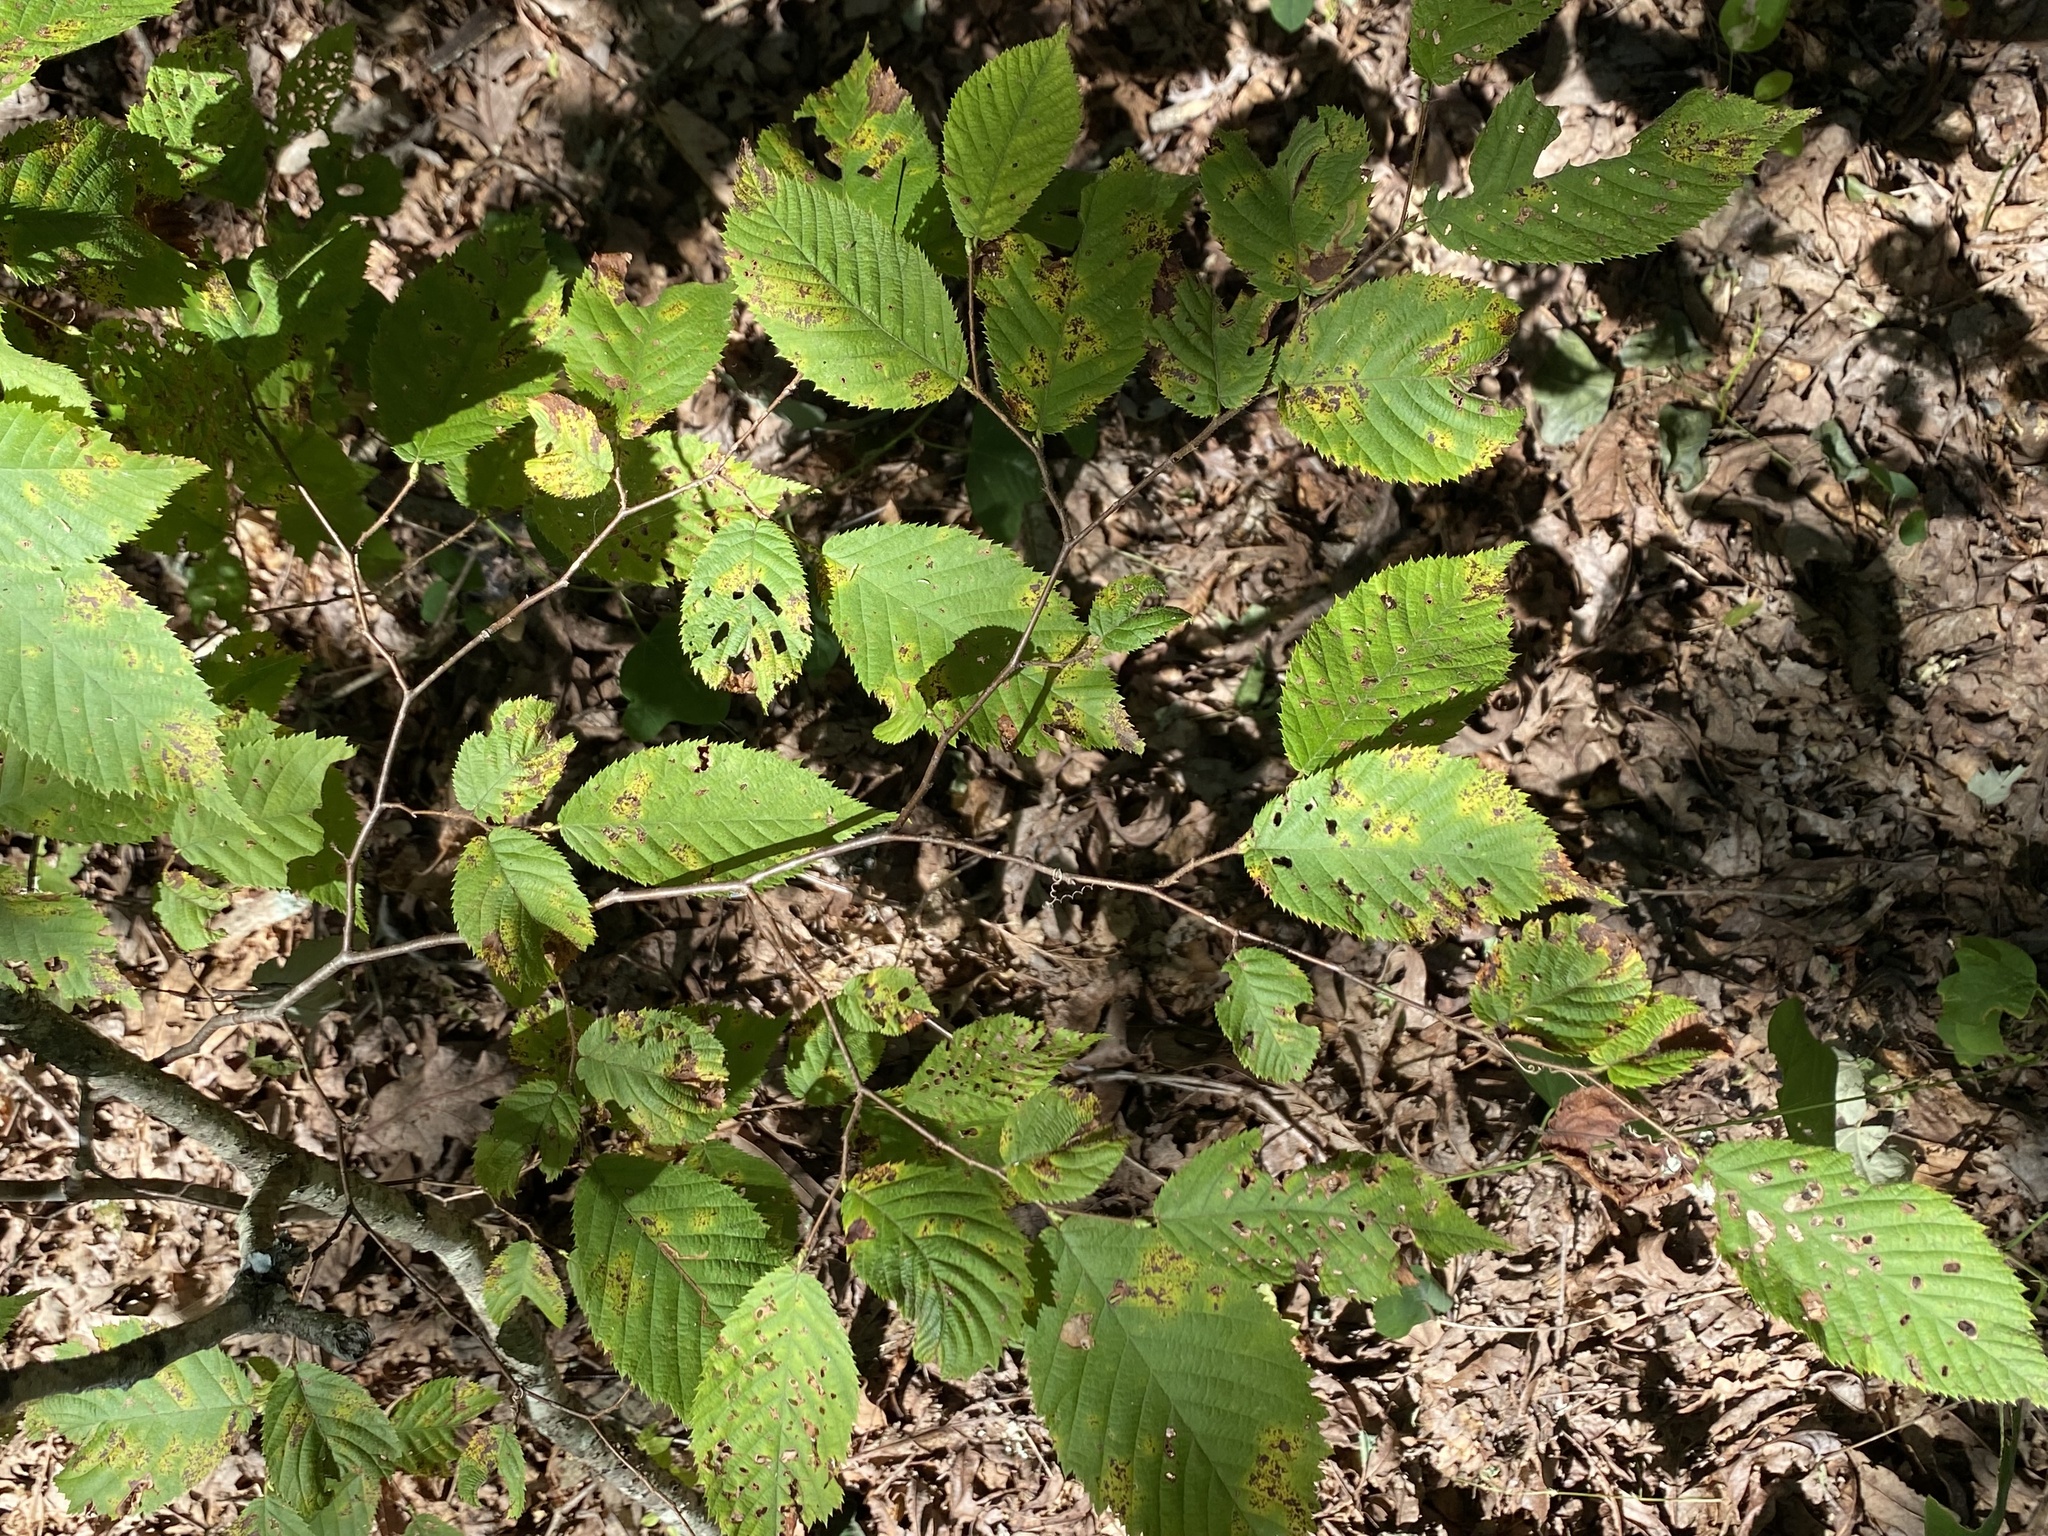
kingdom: Plantae
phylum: Tracheophyta
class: Magnoliopsida
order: Fagales
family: Betulaceae
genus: Ostrya
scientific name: Ostrya virginiana
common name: Ironwood
